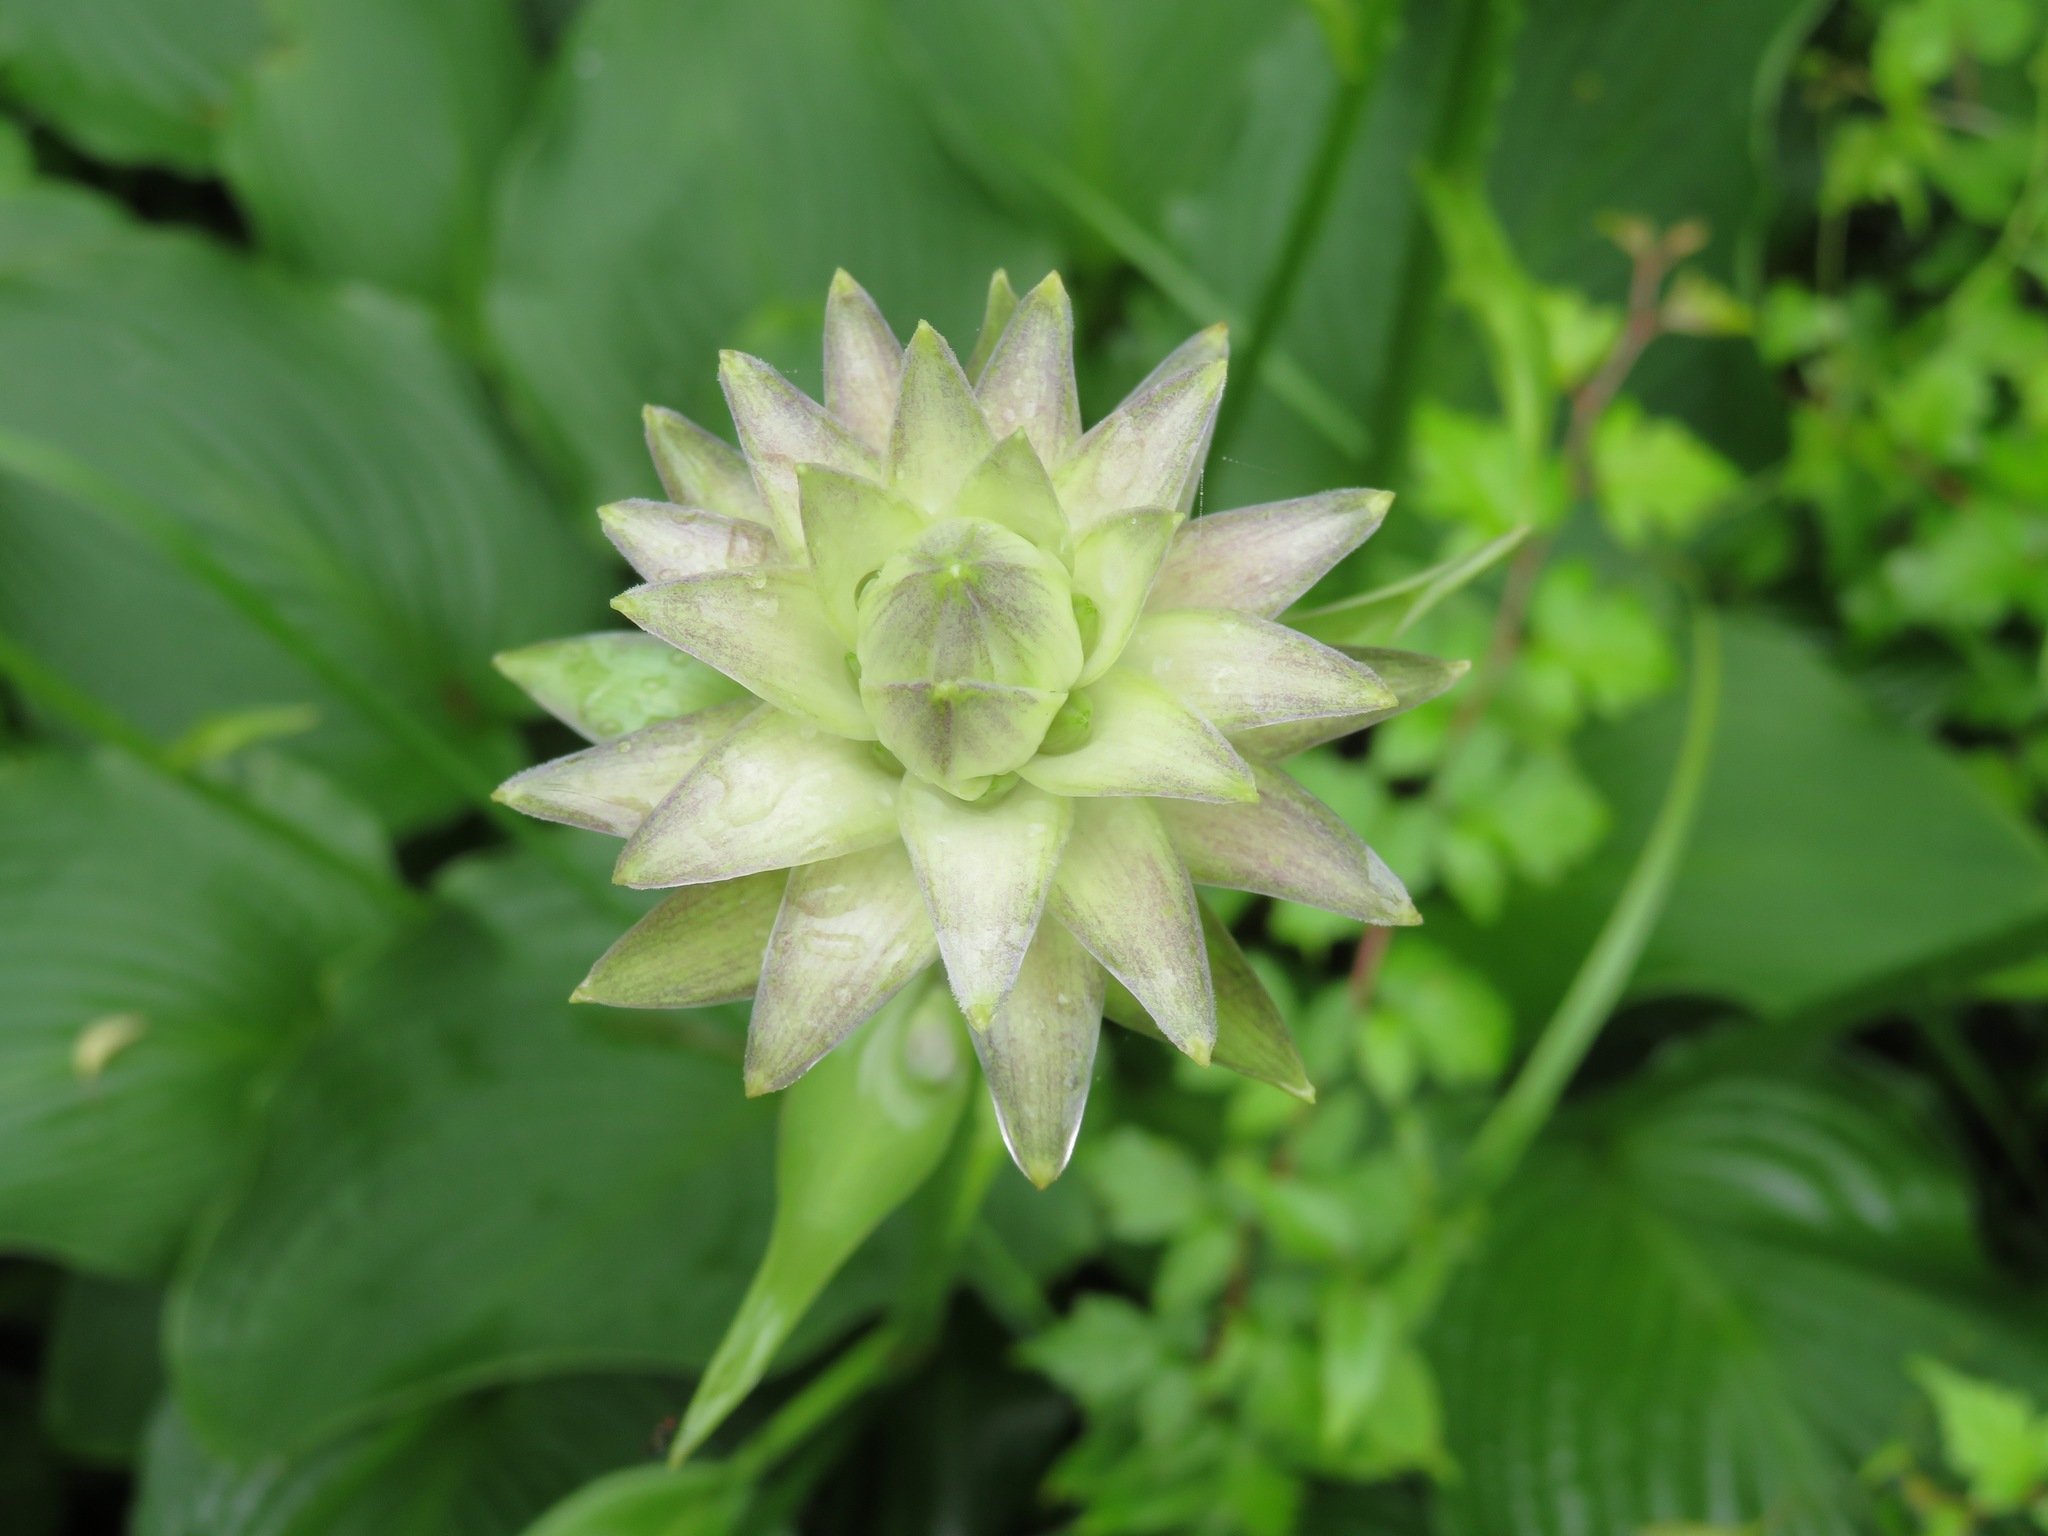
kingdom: Plantae
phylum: Tracheophyta
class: Liliopsida
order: Asparagales
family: Asparagaceae
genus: Hosta
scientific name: Hosta sieboldiana
